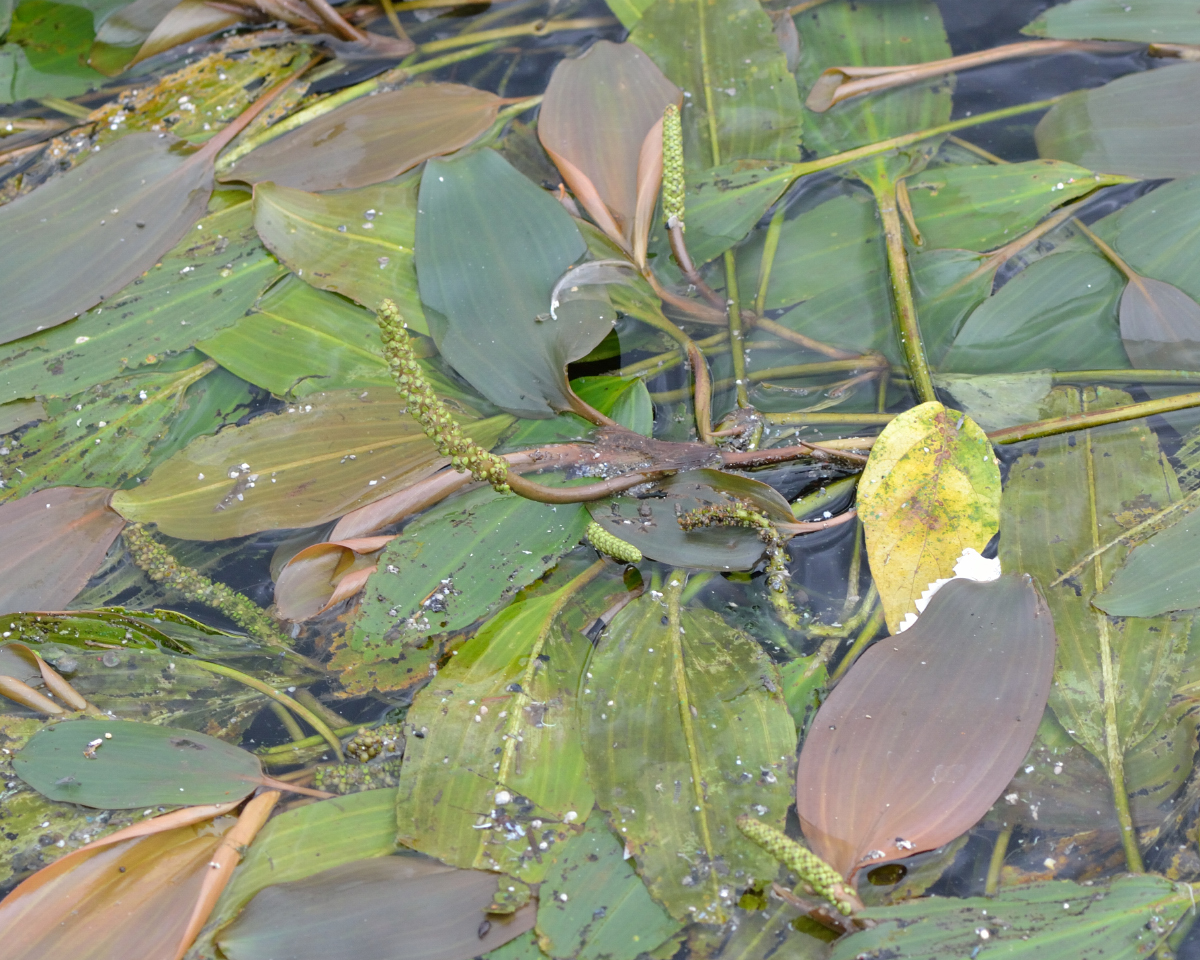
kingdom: Plantae
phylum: Tracheophyta
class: Liliopsida
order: Alismatales
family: Potamogetonaceae
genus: Potamogeton
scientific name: Potamogeton nodosus
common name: Loddon pondweed
